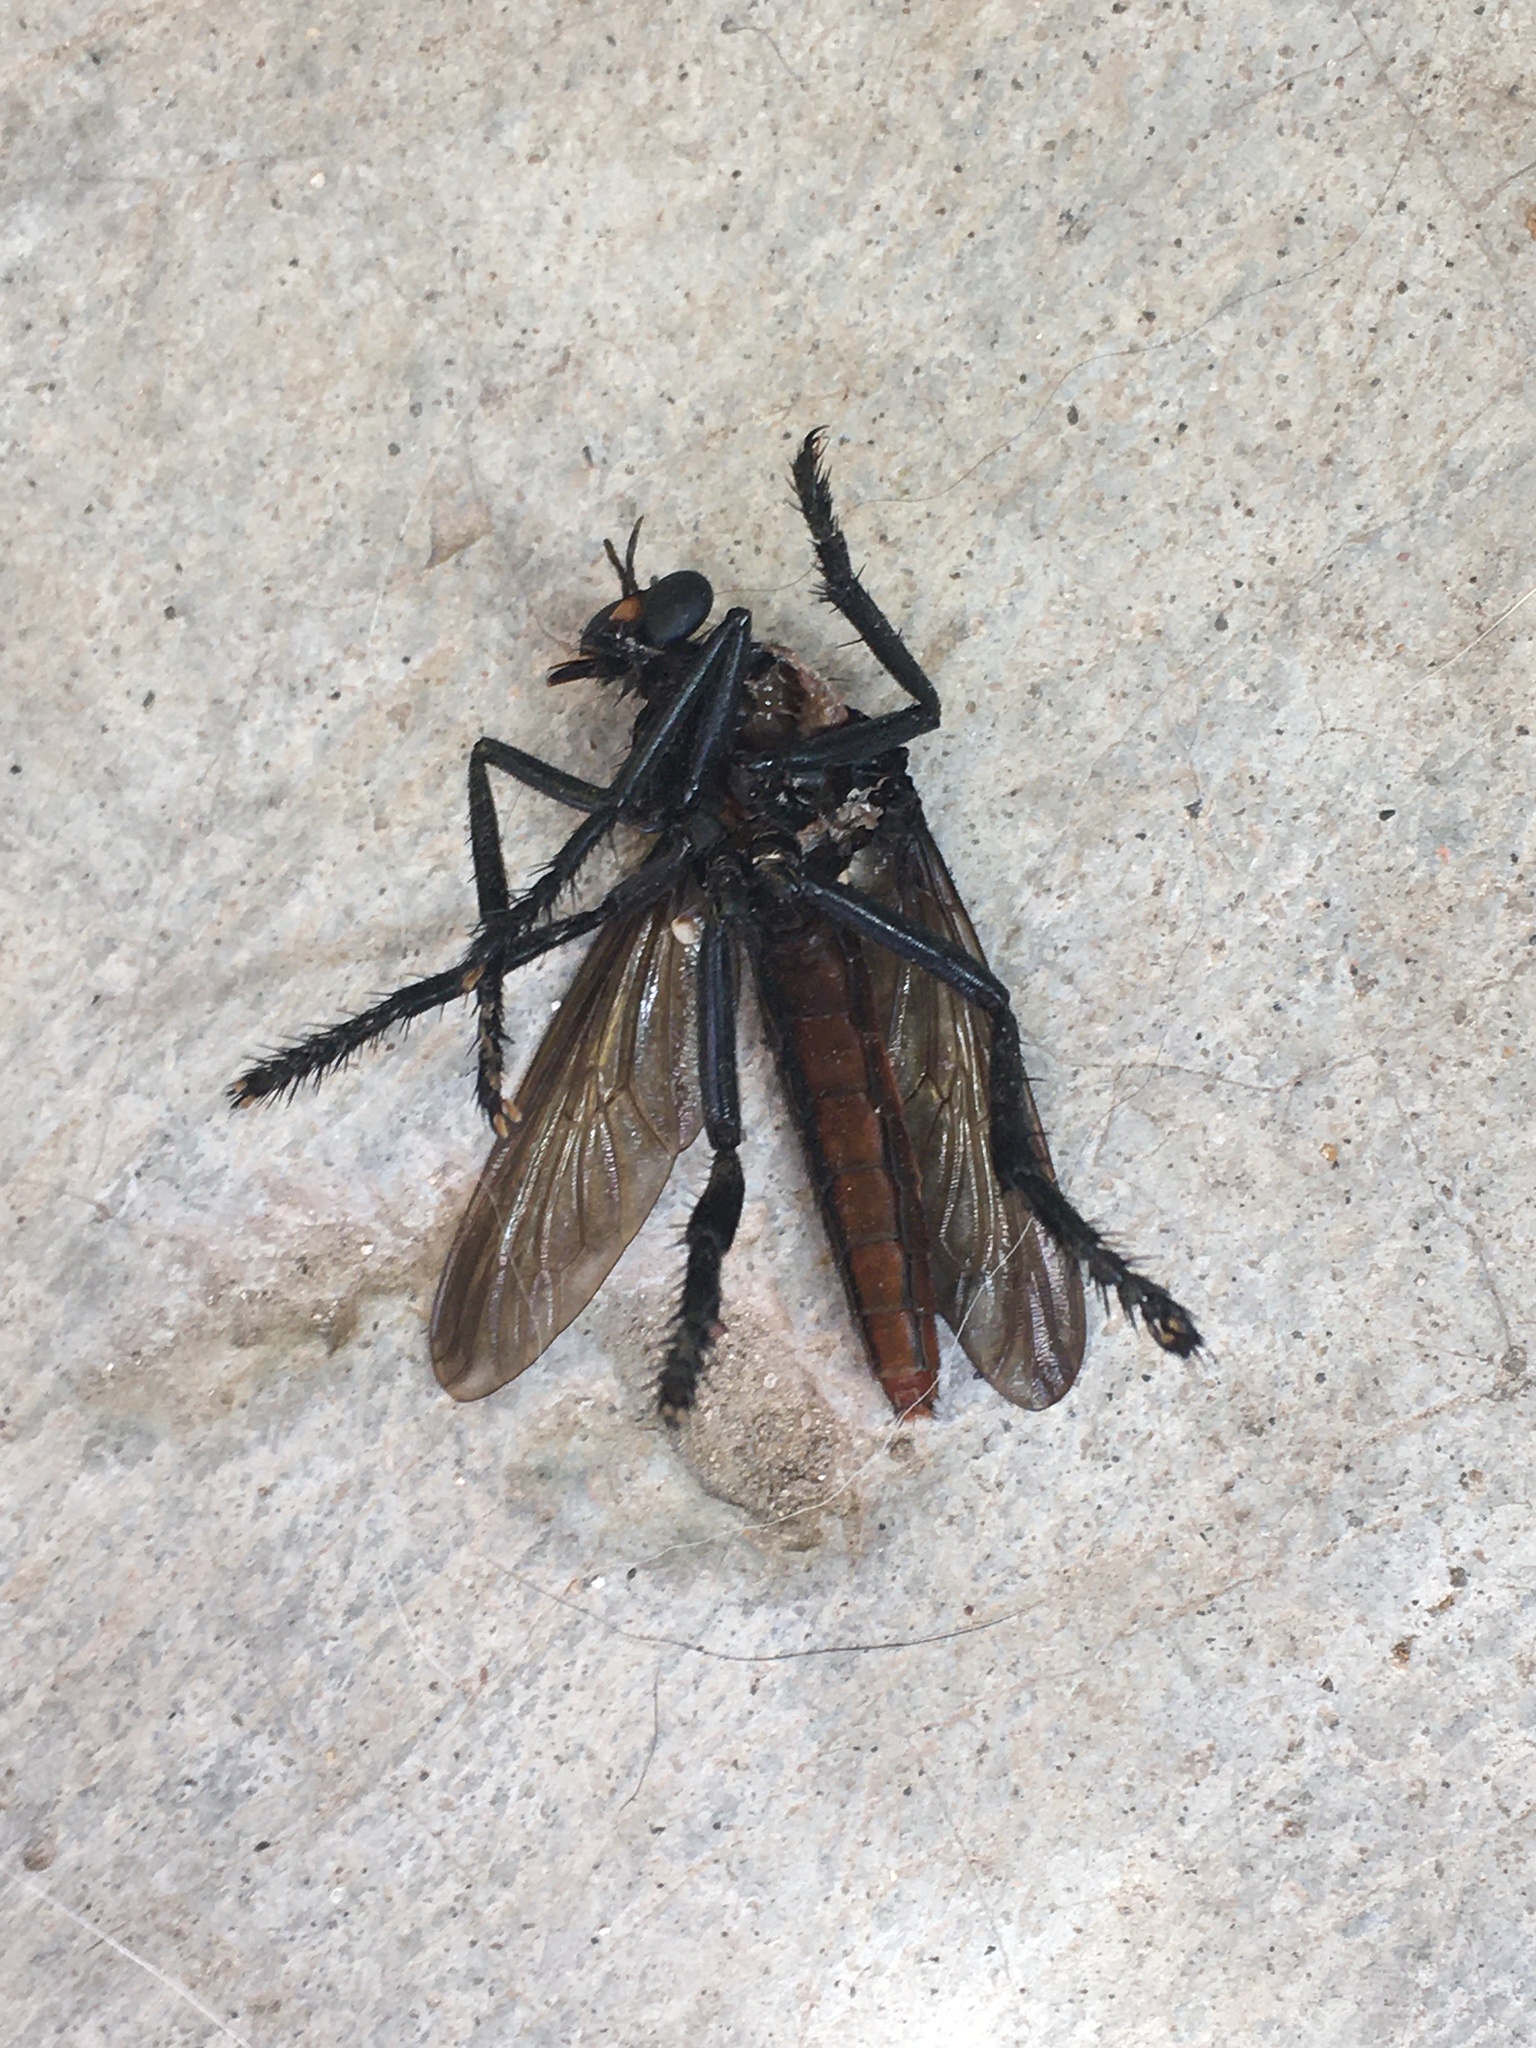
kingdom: Animalia
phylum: Arthropoda
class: Insecta
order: Diptera
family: Asilidae
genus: Archilestris
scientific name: Archilestris magnificus
